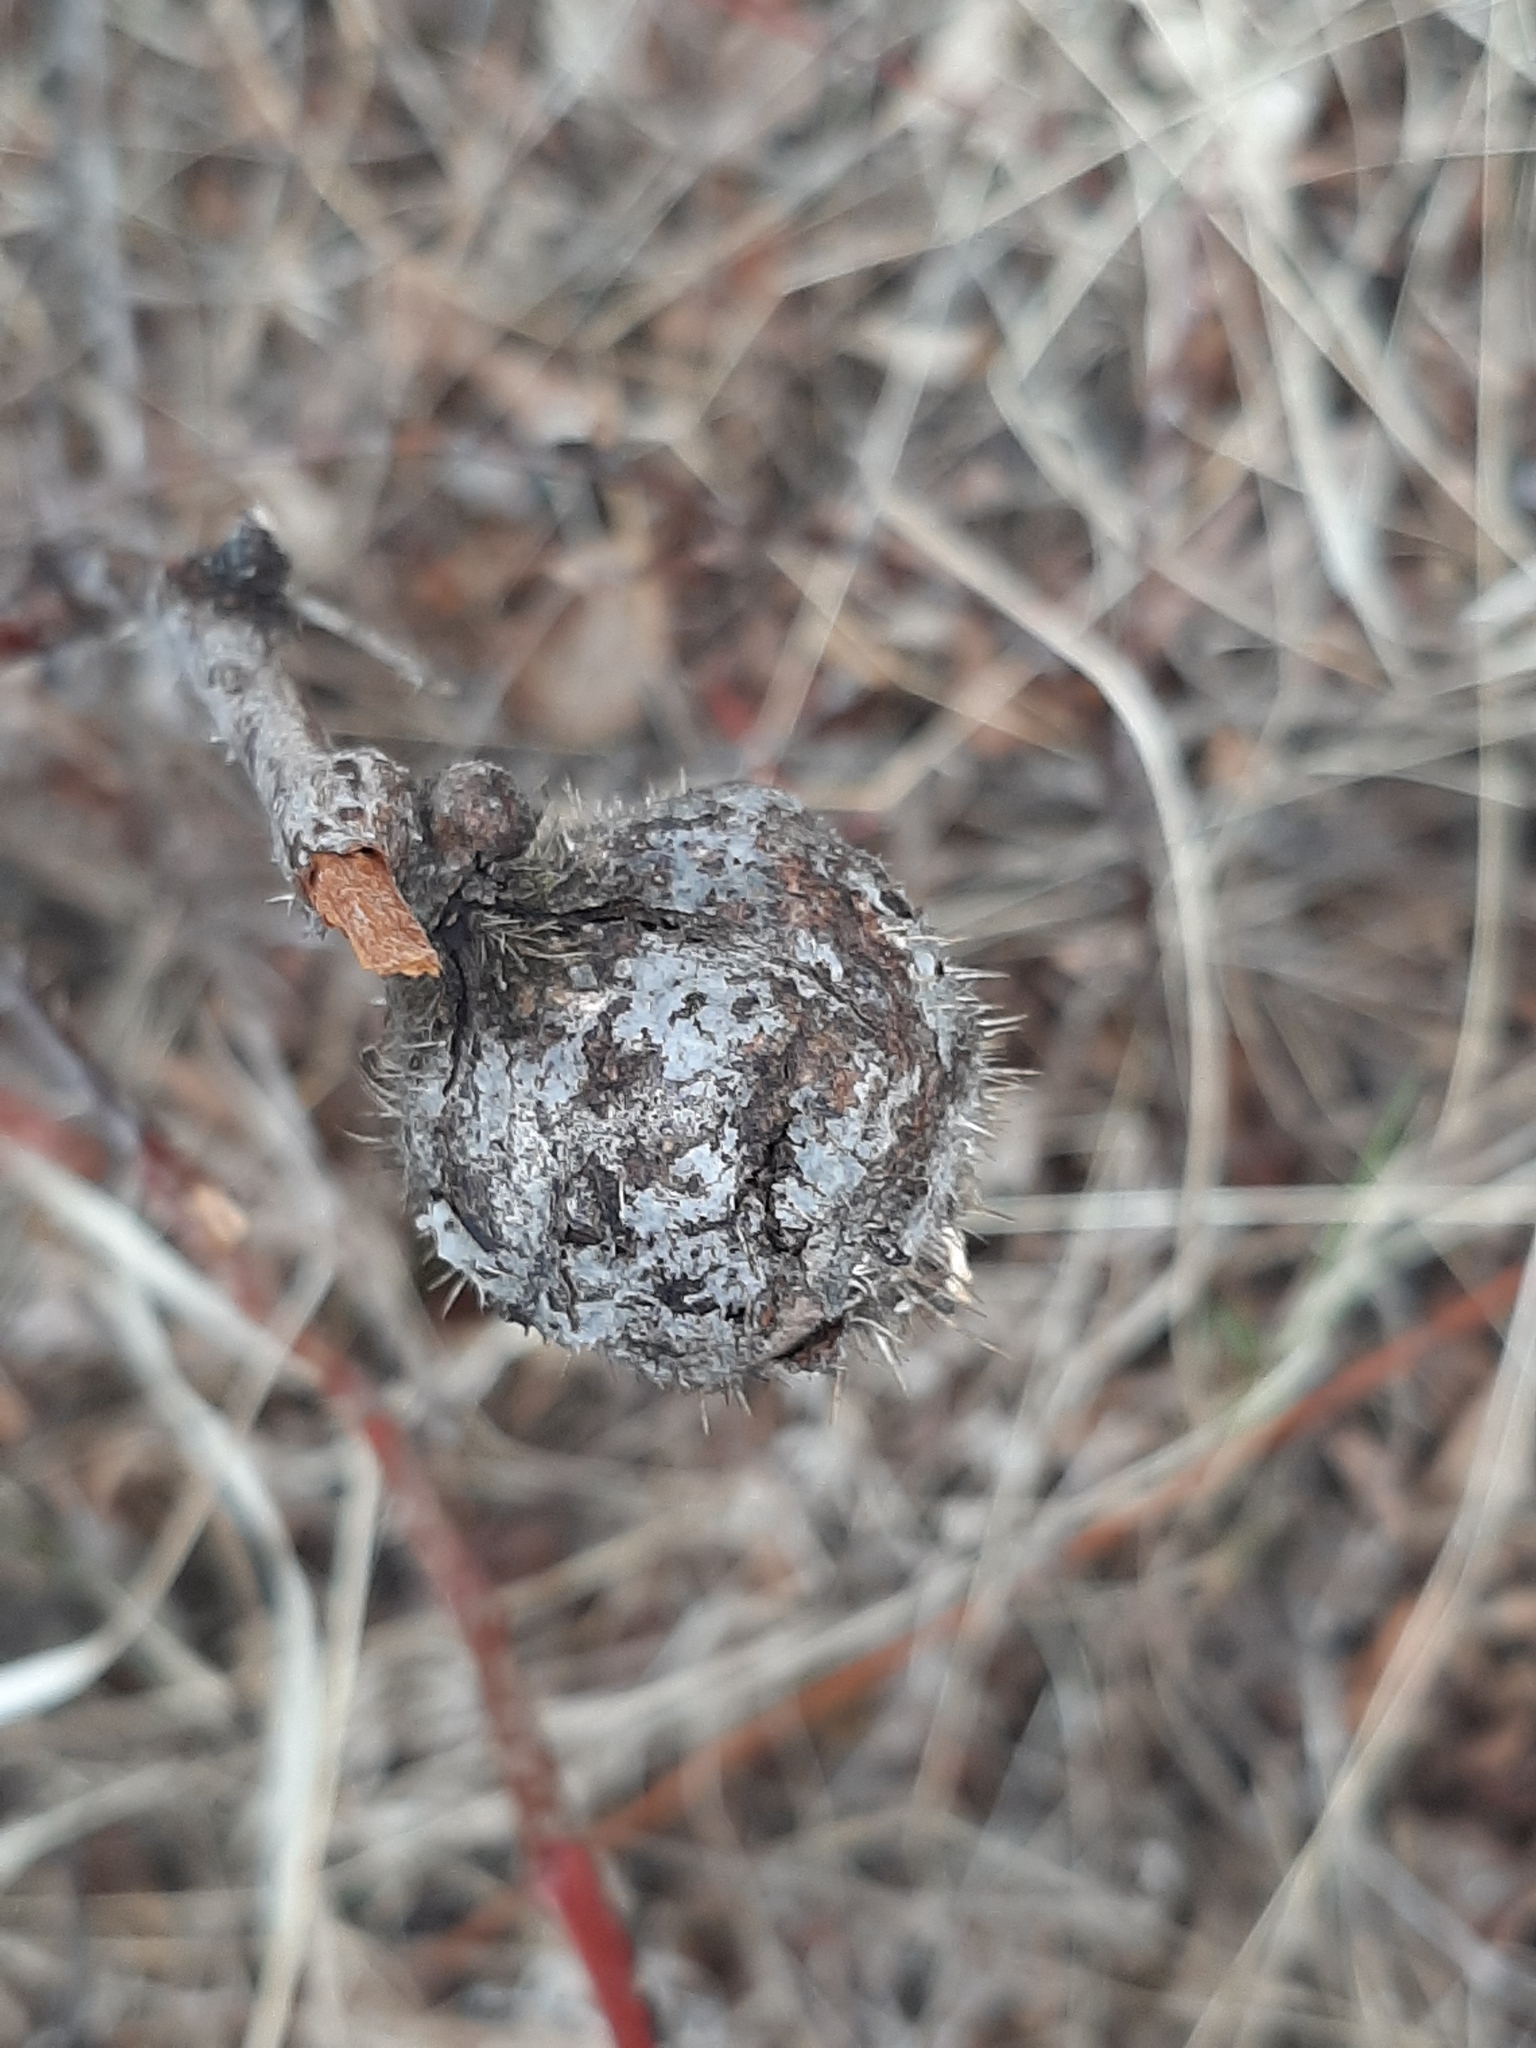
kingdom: Animalia
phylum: Arthropoda
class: Insecta
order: Hymenoptera
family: Cynipidae
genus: Diplolepis
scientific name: Diplolepis spinosa
